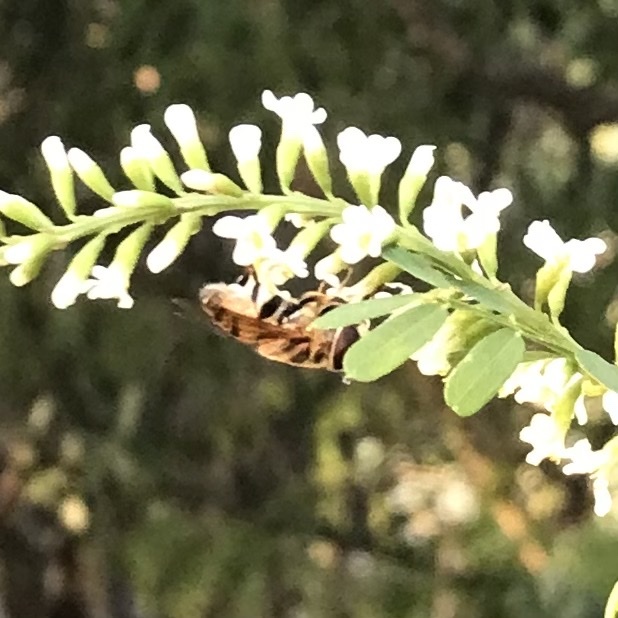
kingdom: Animalia
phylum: Arthropoda
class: Insecta
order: Diptera
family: Syrphidae
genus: Palpada
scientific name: Palpada vinetorum
